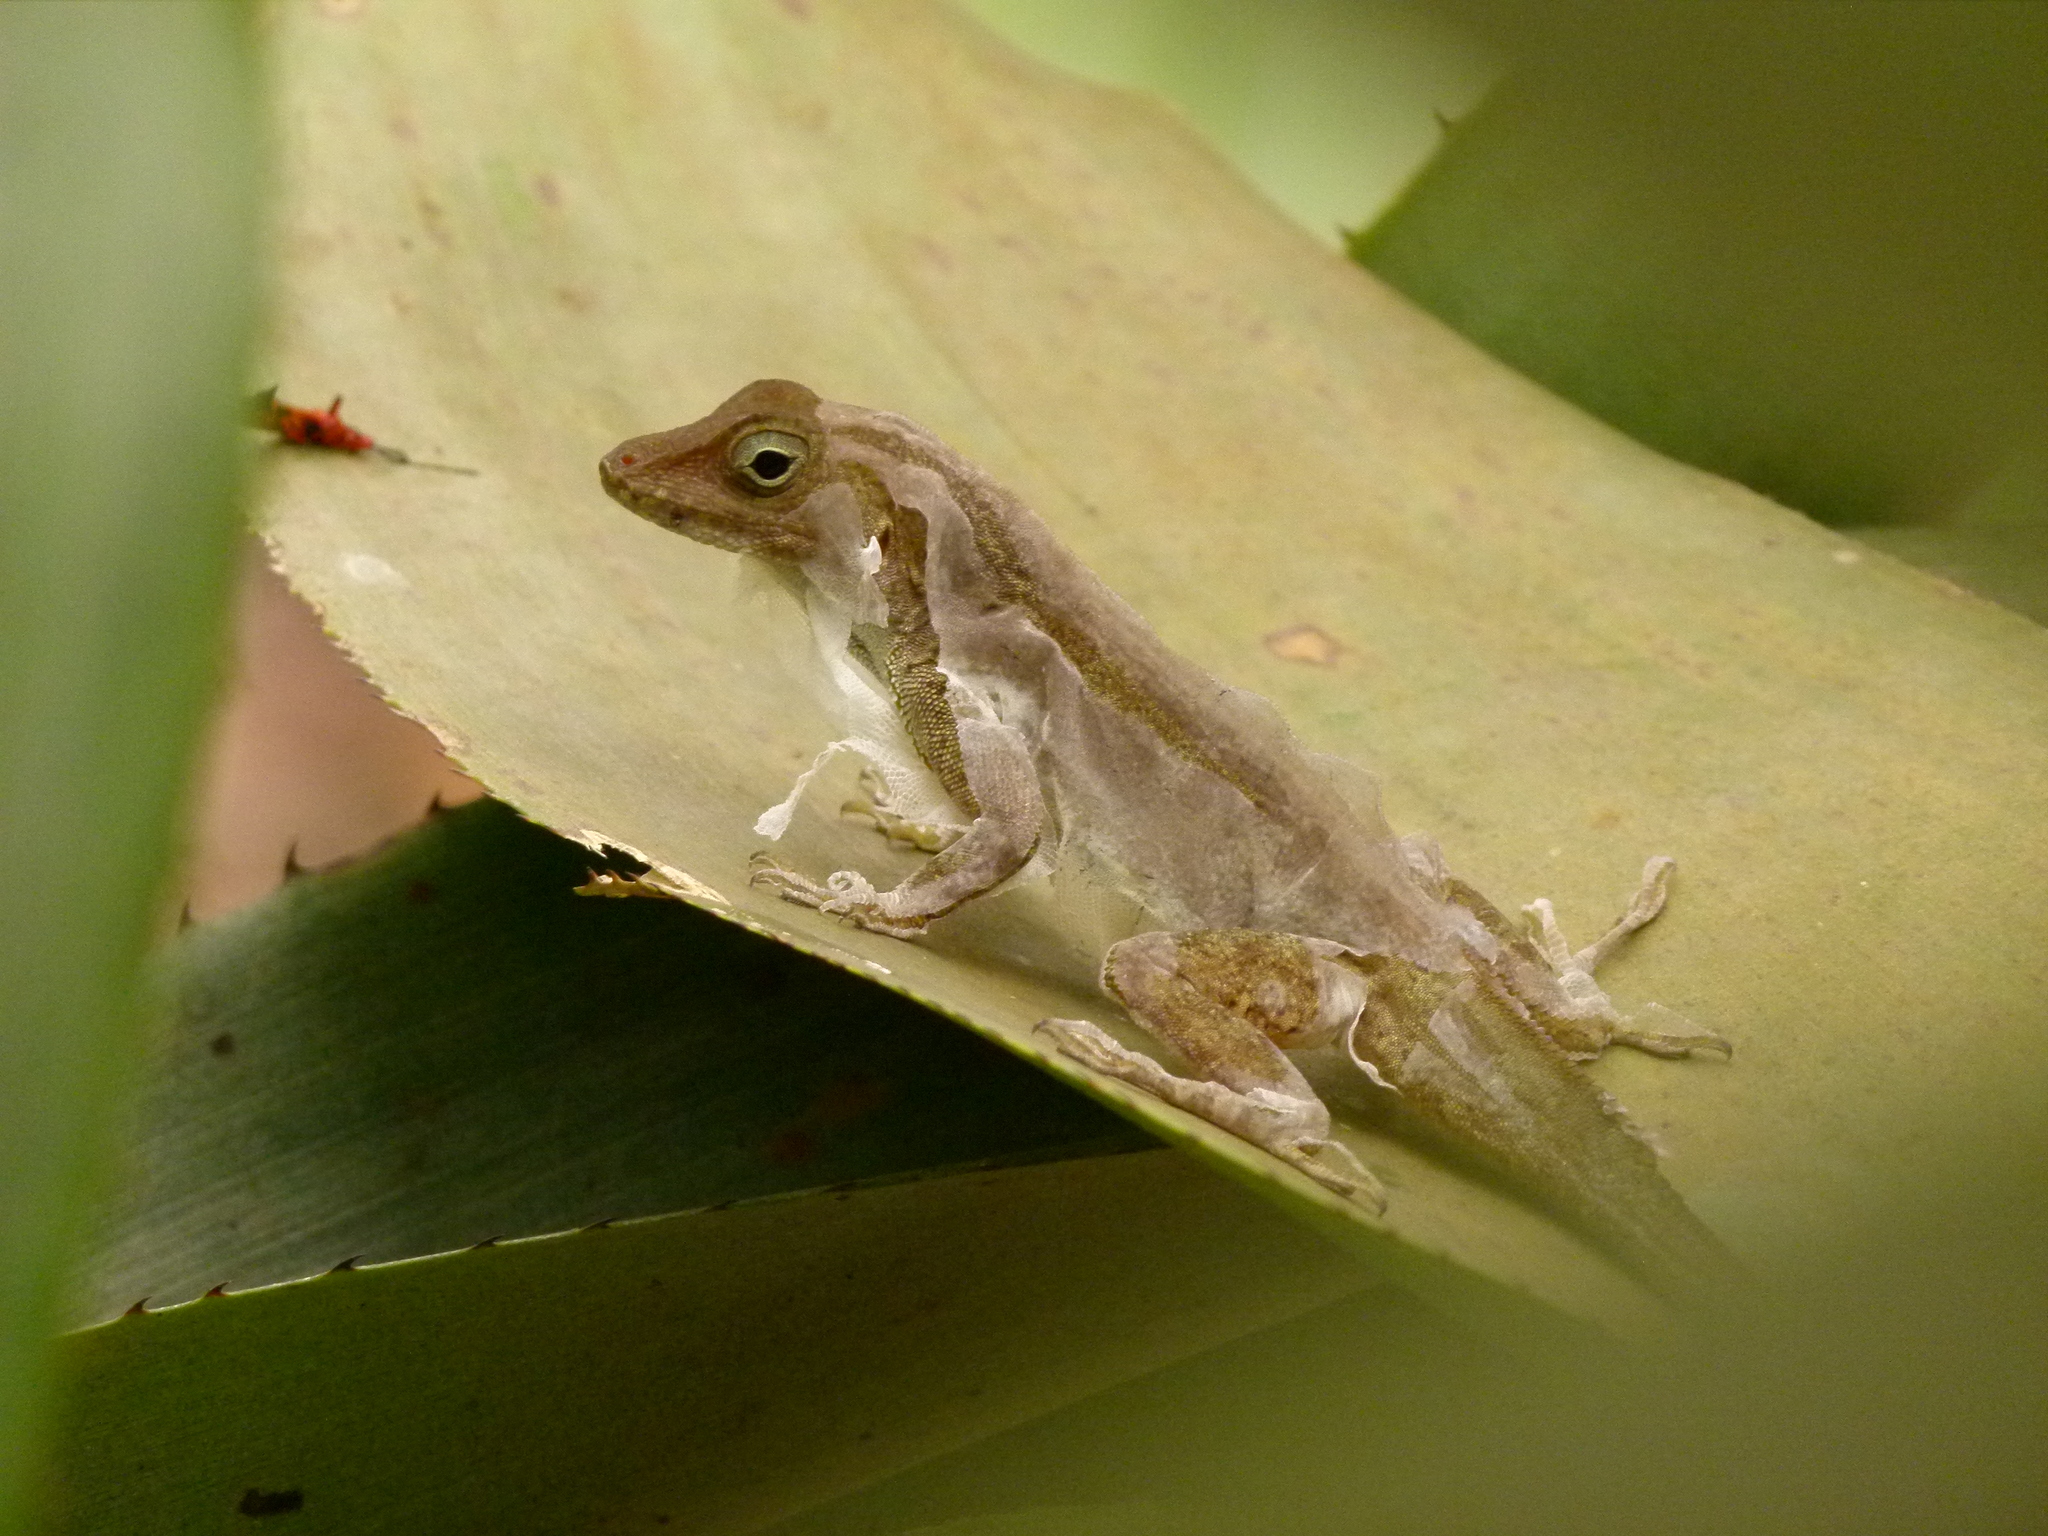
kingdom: Animalia
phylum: Chordata
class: Squamata
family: Dactyloidae
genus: Anolis
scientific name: Anolis cristatellus
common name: Crested anole
